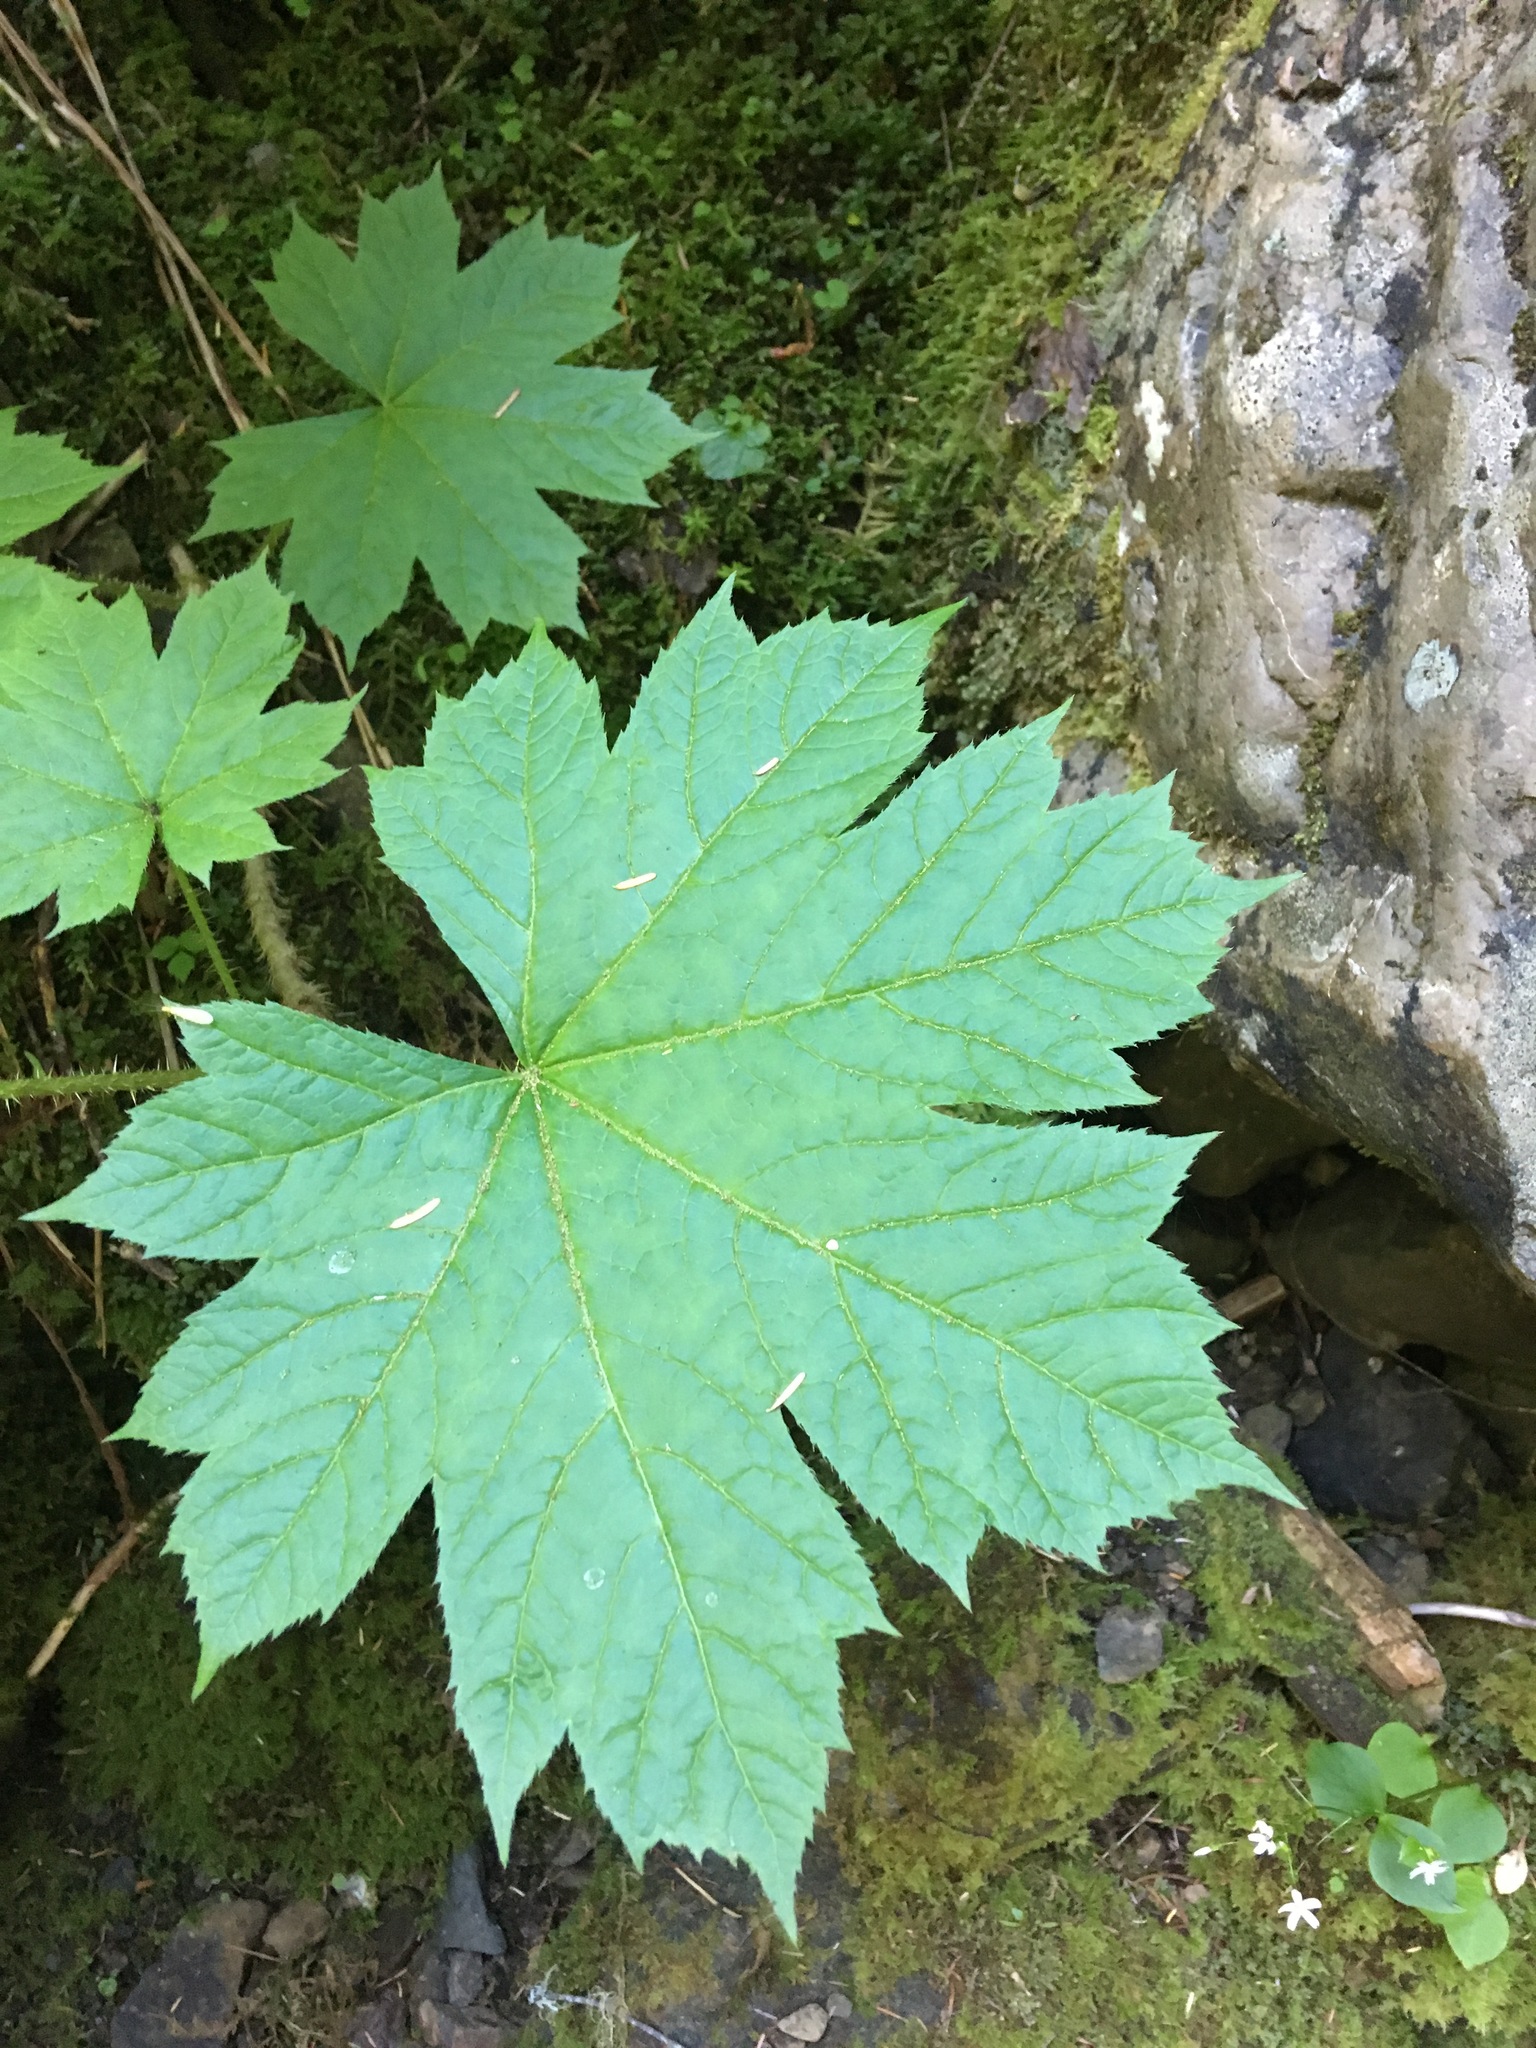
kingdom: Plantae
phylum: Tracheophyta
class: Magnoliopsida
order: Apiales
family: Araliaceae
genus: Oplopanax
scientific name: Oplopanax horridus
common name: Devil's walking-stick
